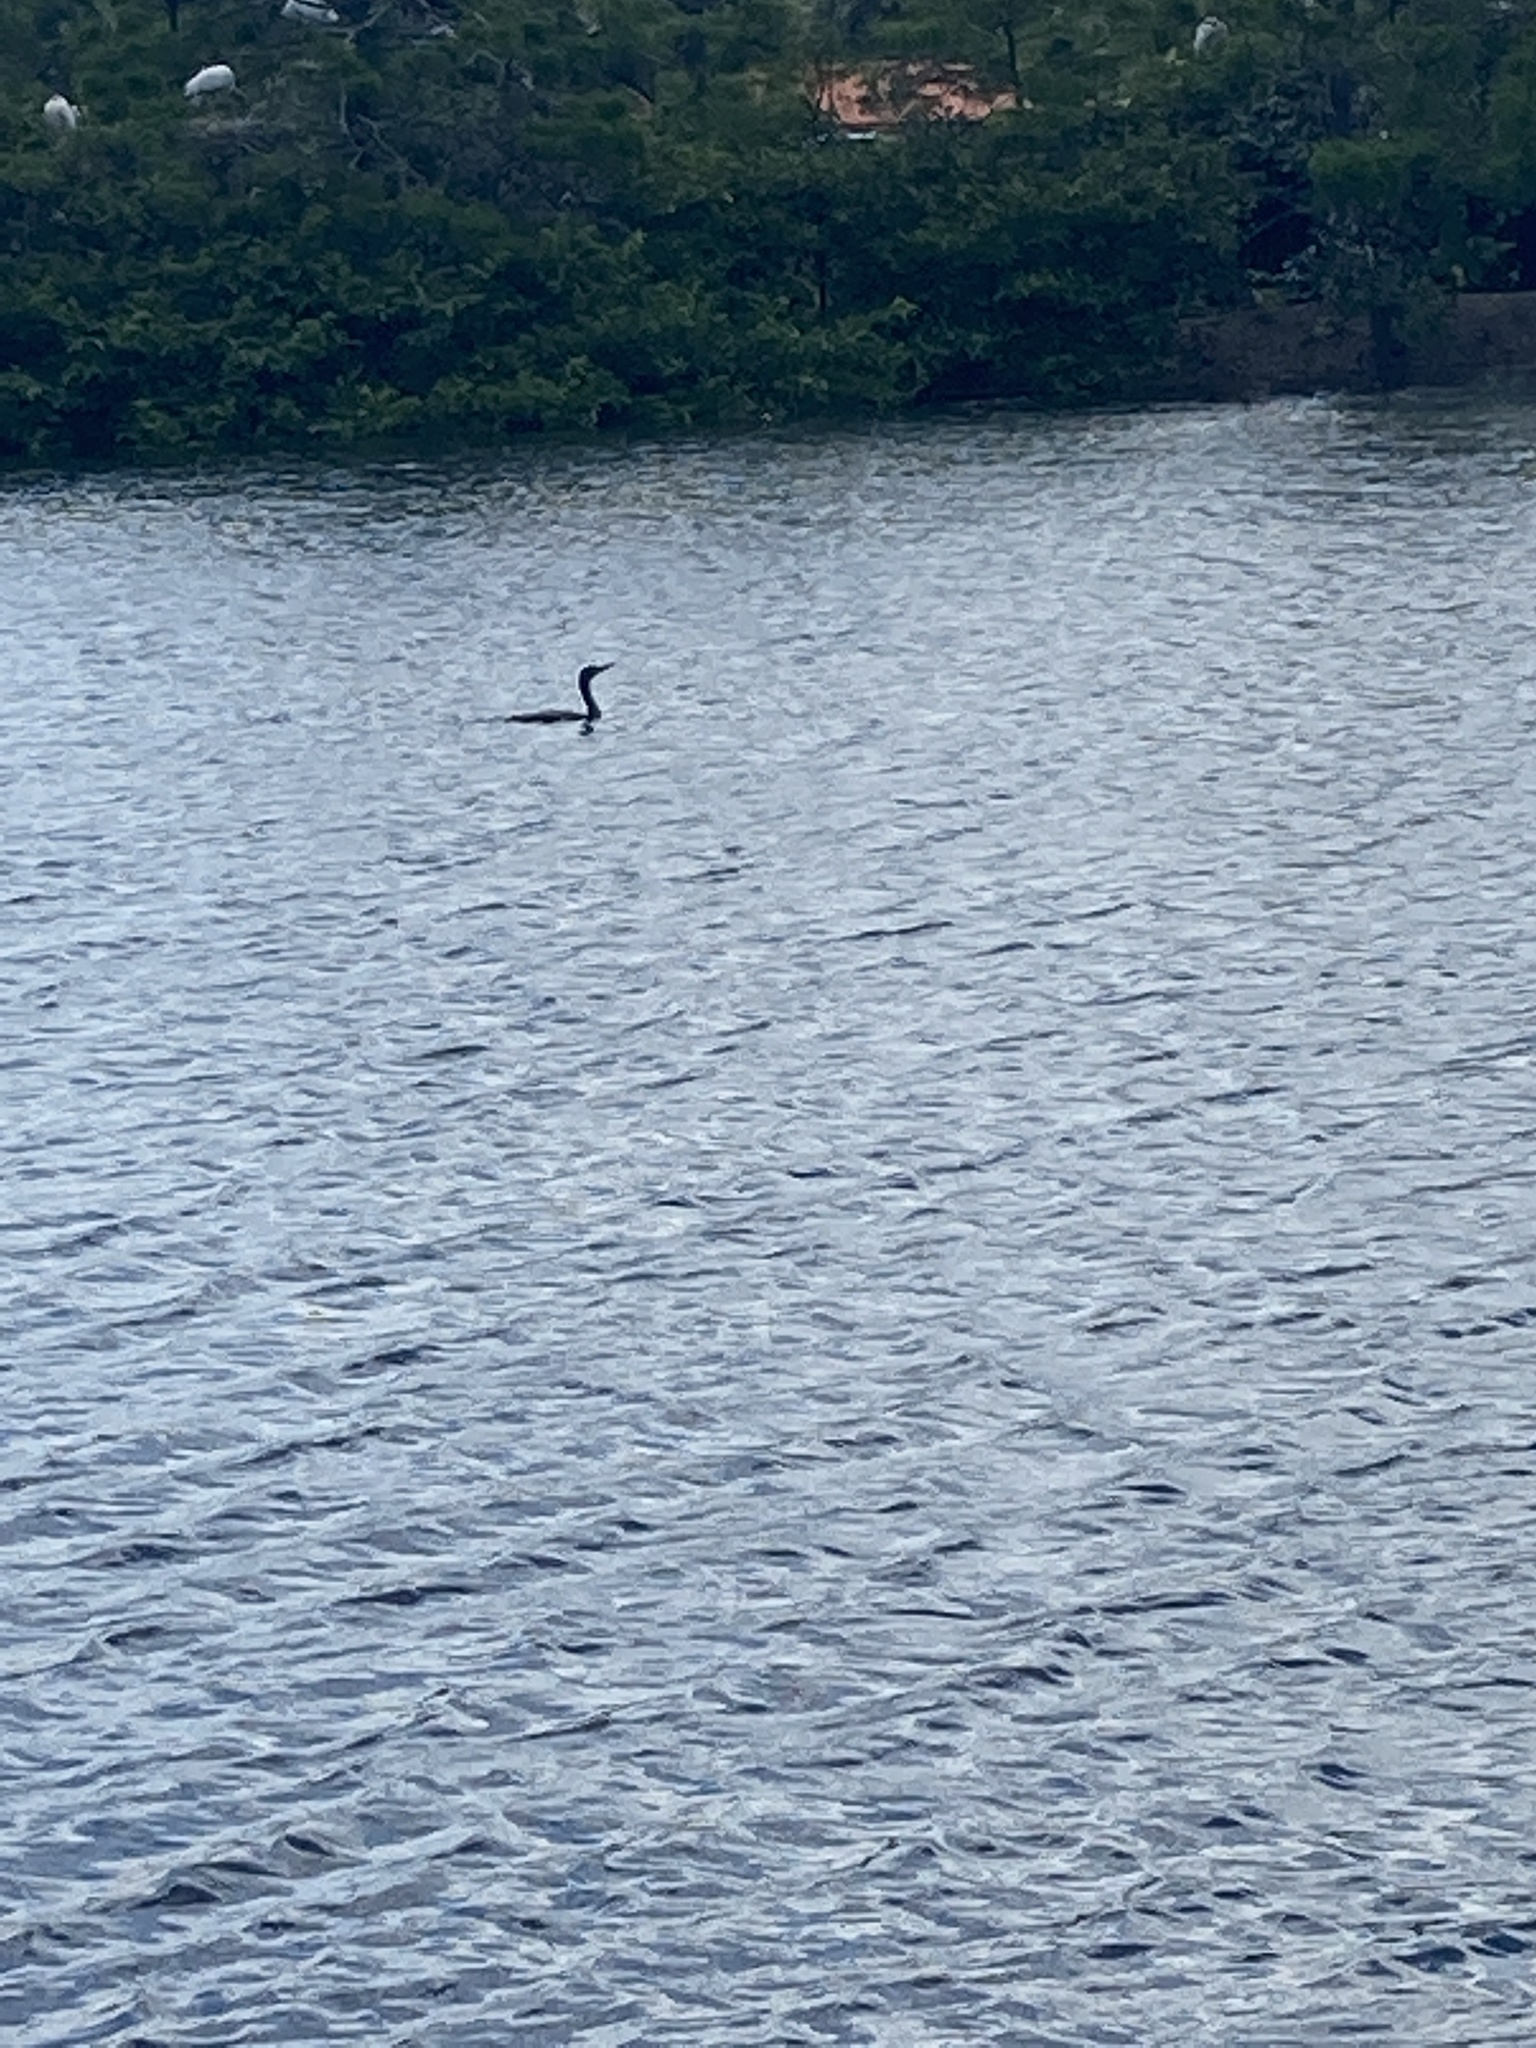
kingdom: Animalia
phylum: Chordata
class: Aves
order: Suliformes
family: Phalacrocoracidae
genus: Phalacrocorax
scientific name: Phalacrocorax auritus
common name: Double-crested cormorant
